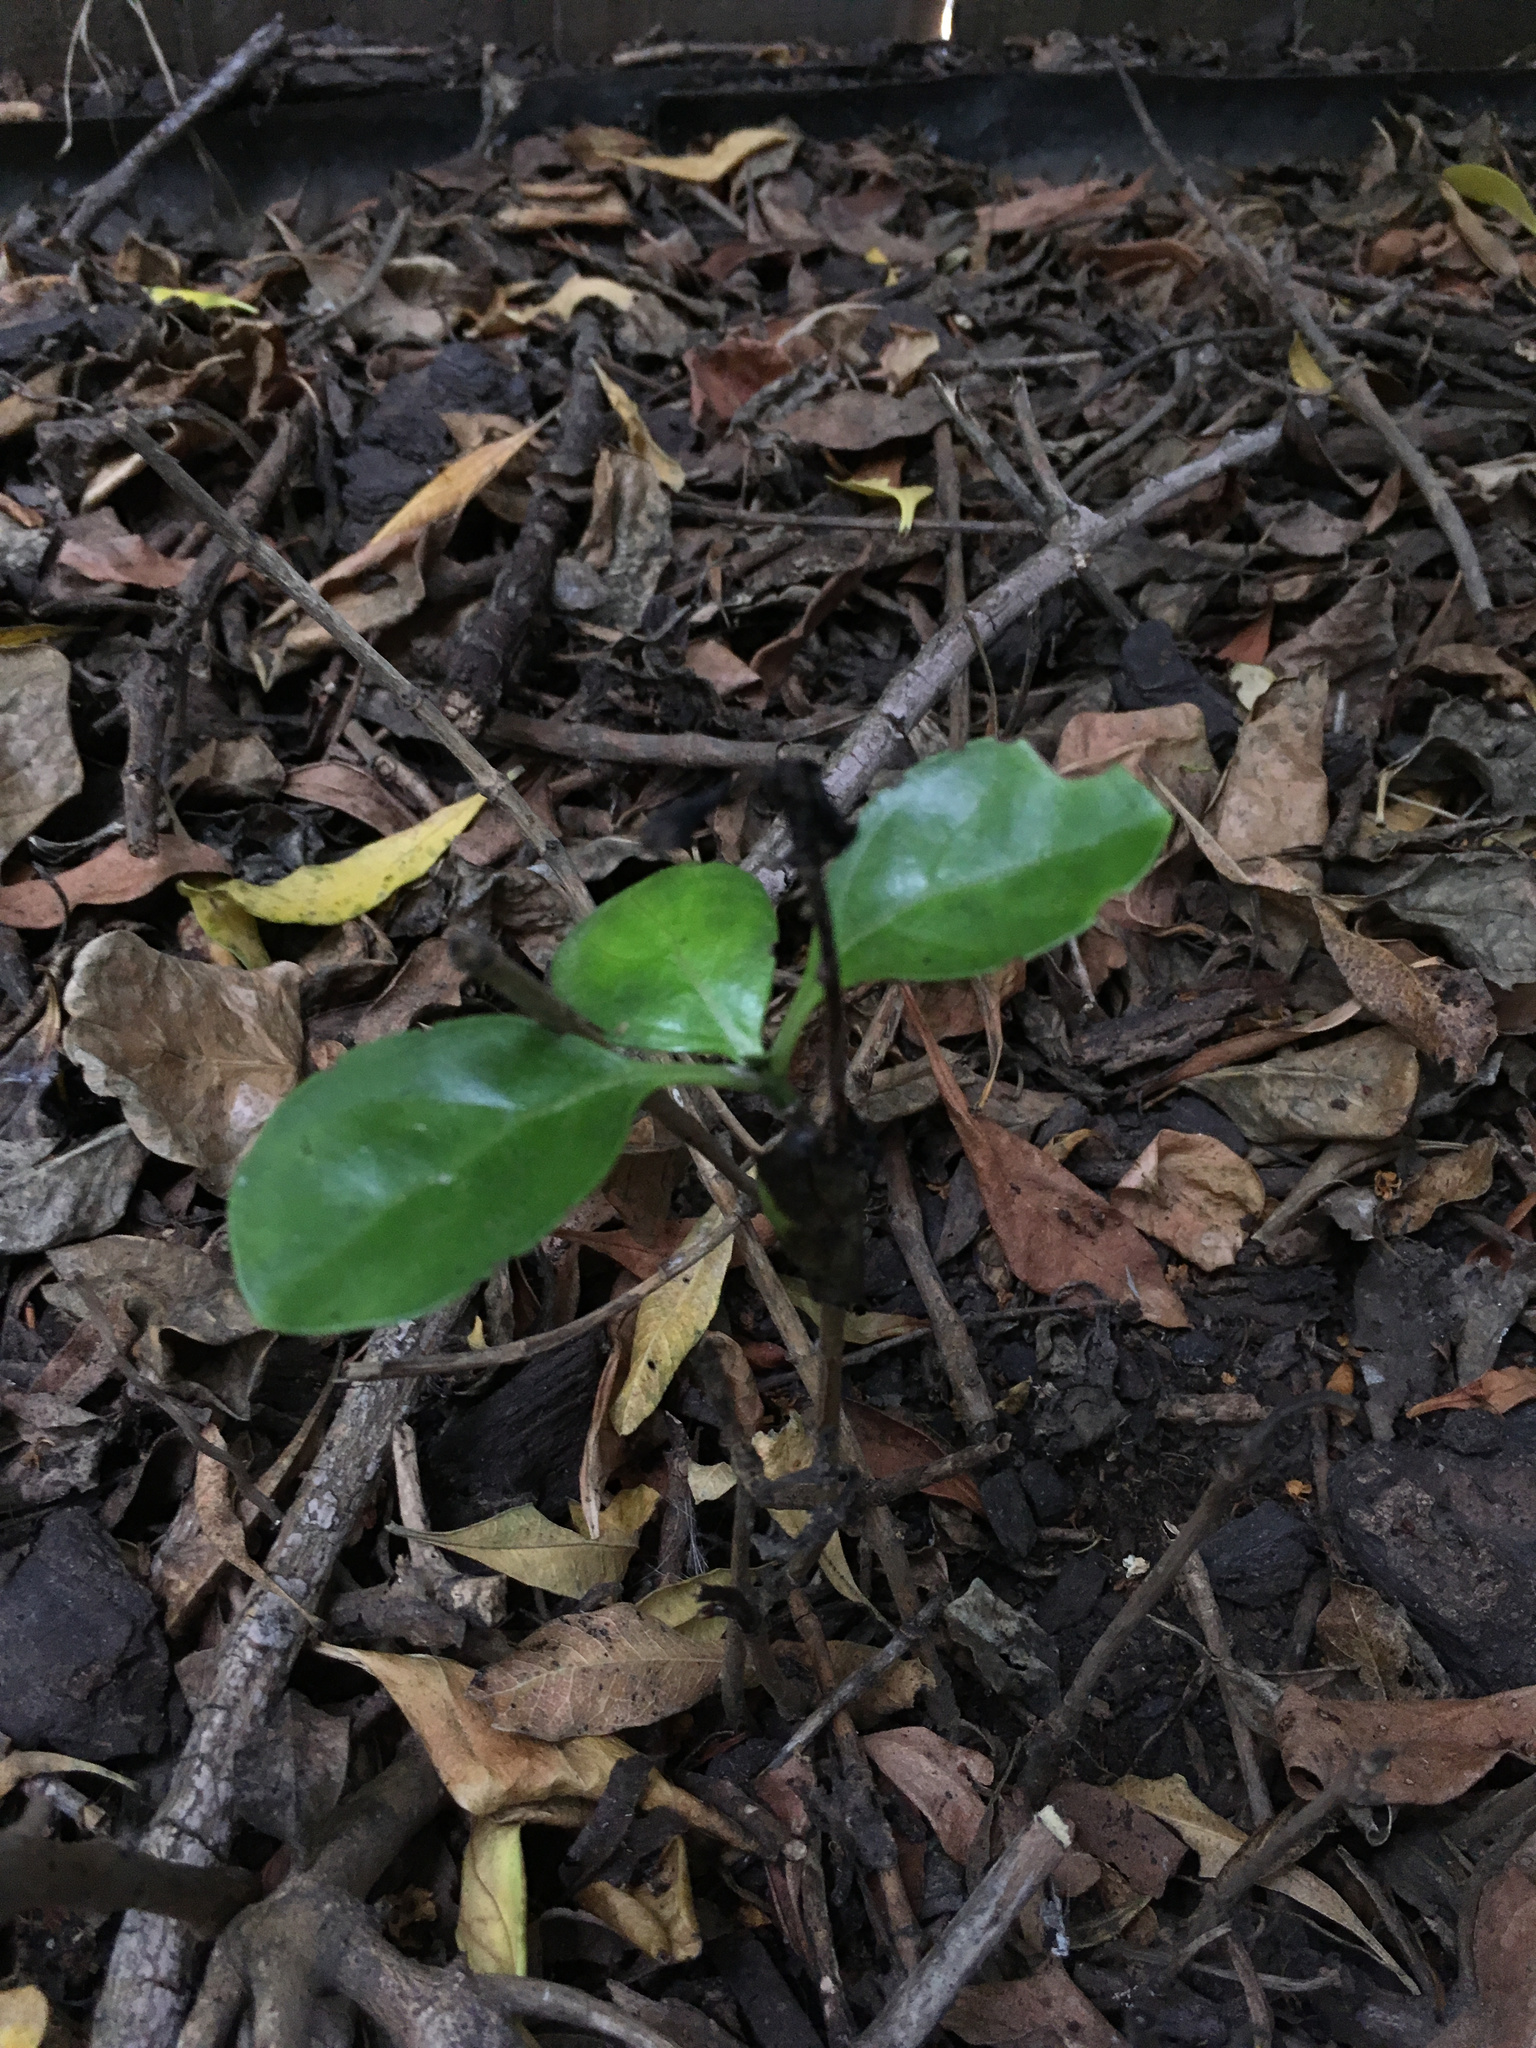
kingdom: Plantae
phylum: Tracheophyta
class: Magnoliopsida
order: Gentianales
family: Rubiaceae
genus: Coprosma
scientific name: Coprosma repens
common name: Tree bedstraw
